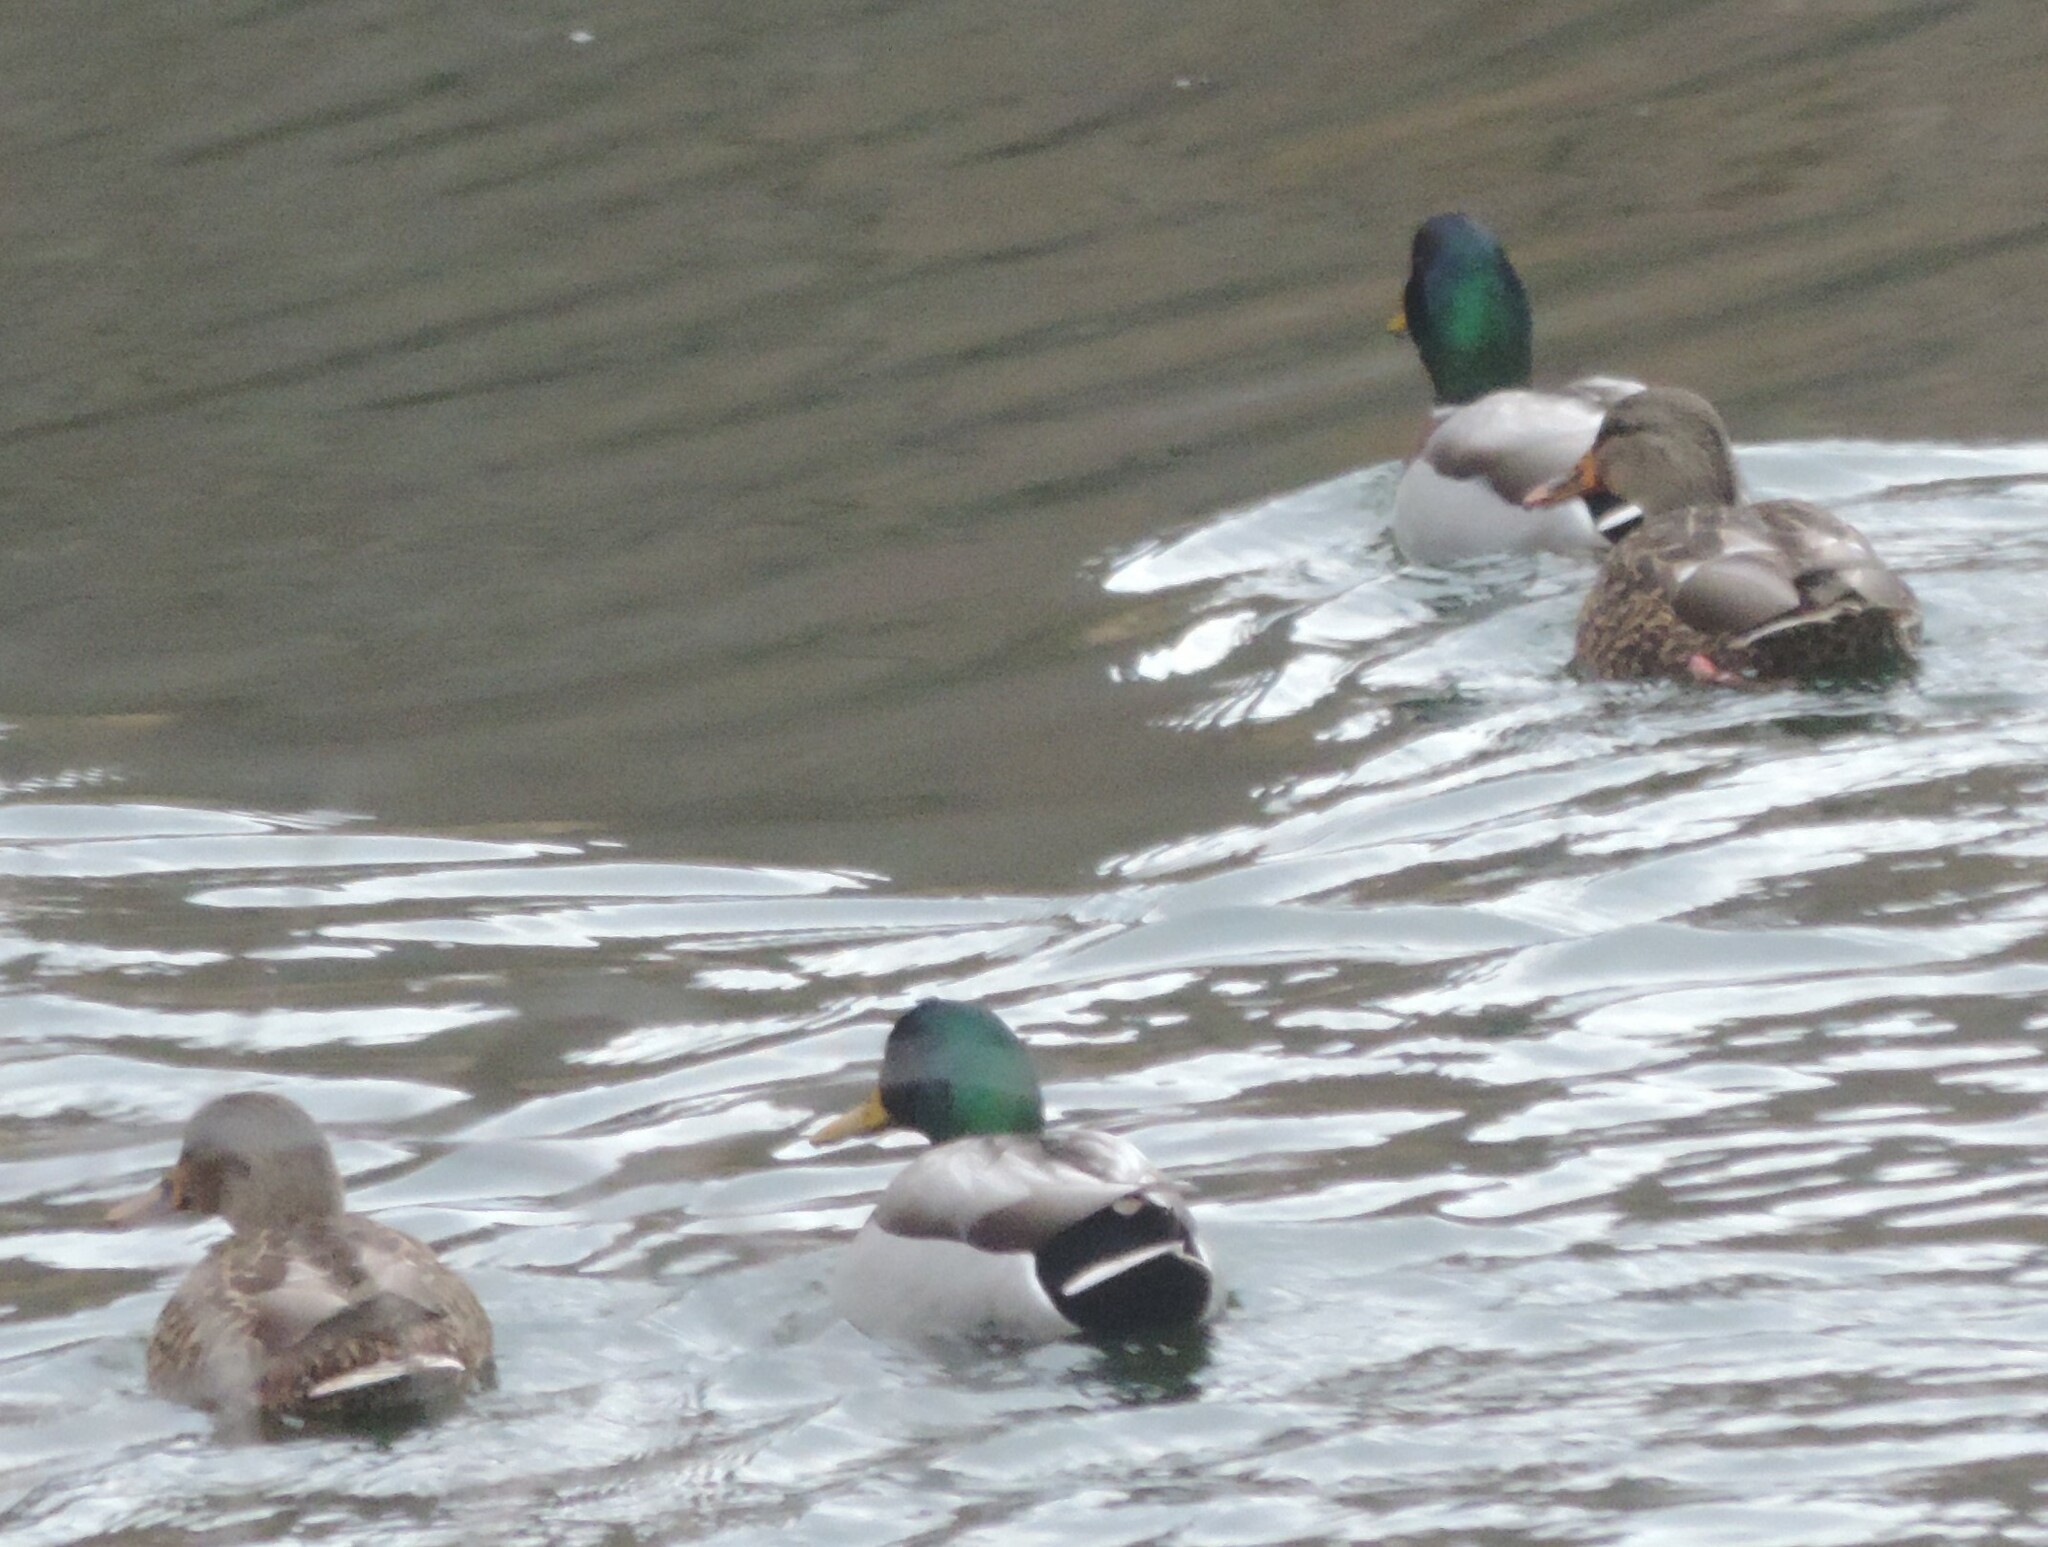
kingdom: Animalia
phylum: Chordata
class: Aves
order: Anseriformes
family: Anatidae
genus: Anas
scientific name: Anas platyrhynchos
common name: Mallard
